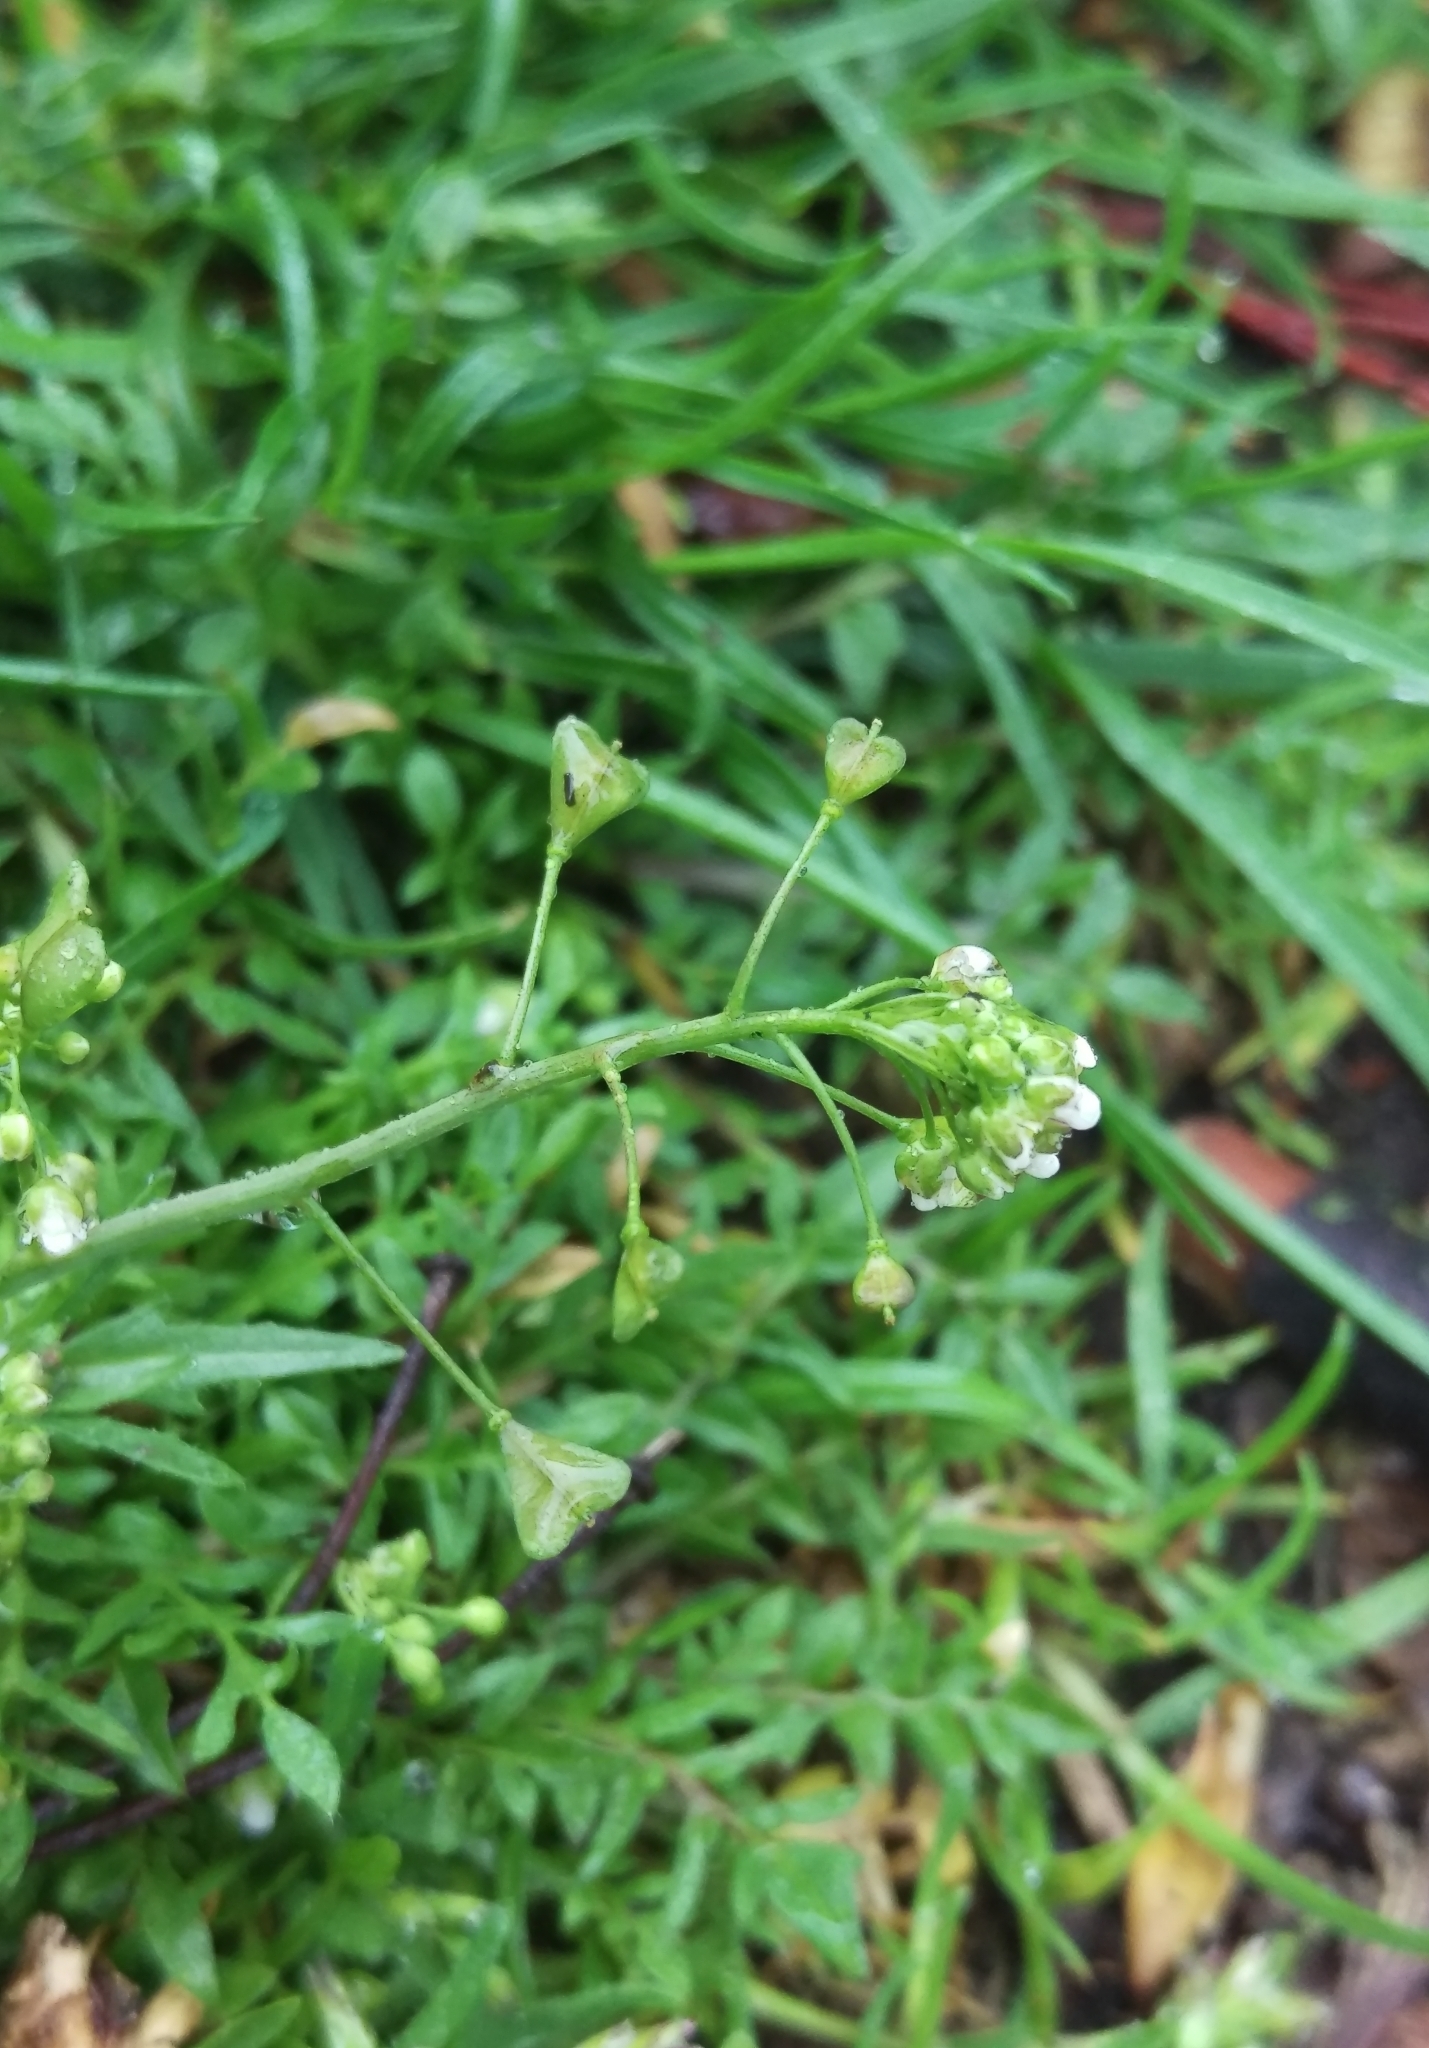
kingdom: Plantae
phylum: Tracheophyta
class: Magnoliopsida
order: Brassicales
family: Brassicaceae
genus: Capsella
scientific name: Capsella bursa-pastoris
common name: Shepherd's purse
